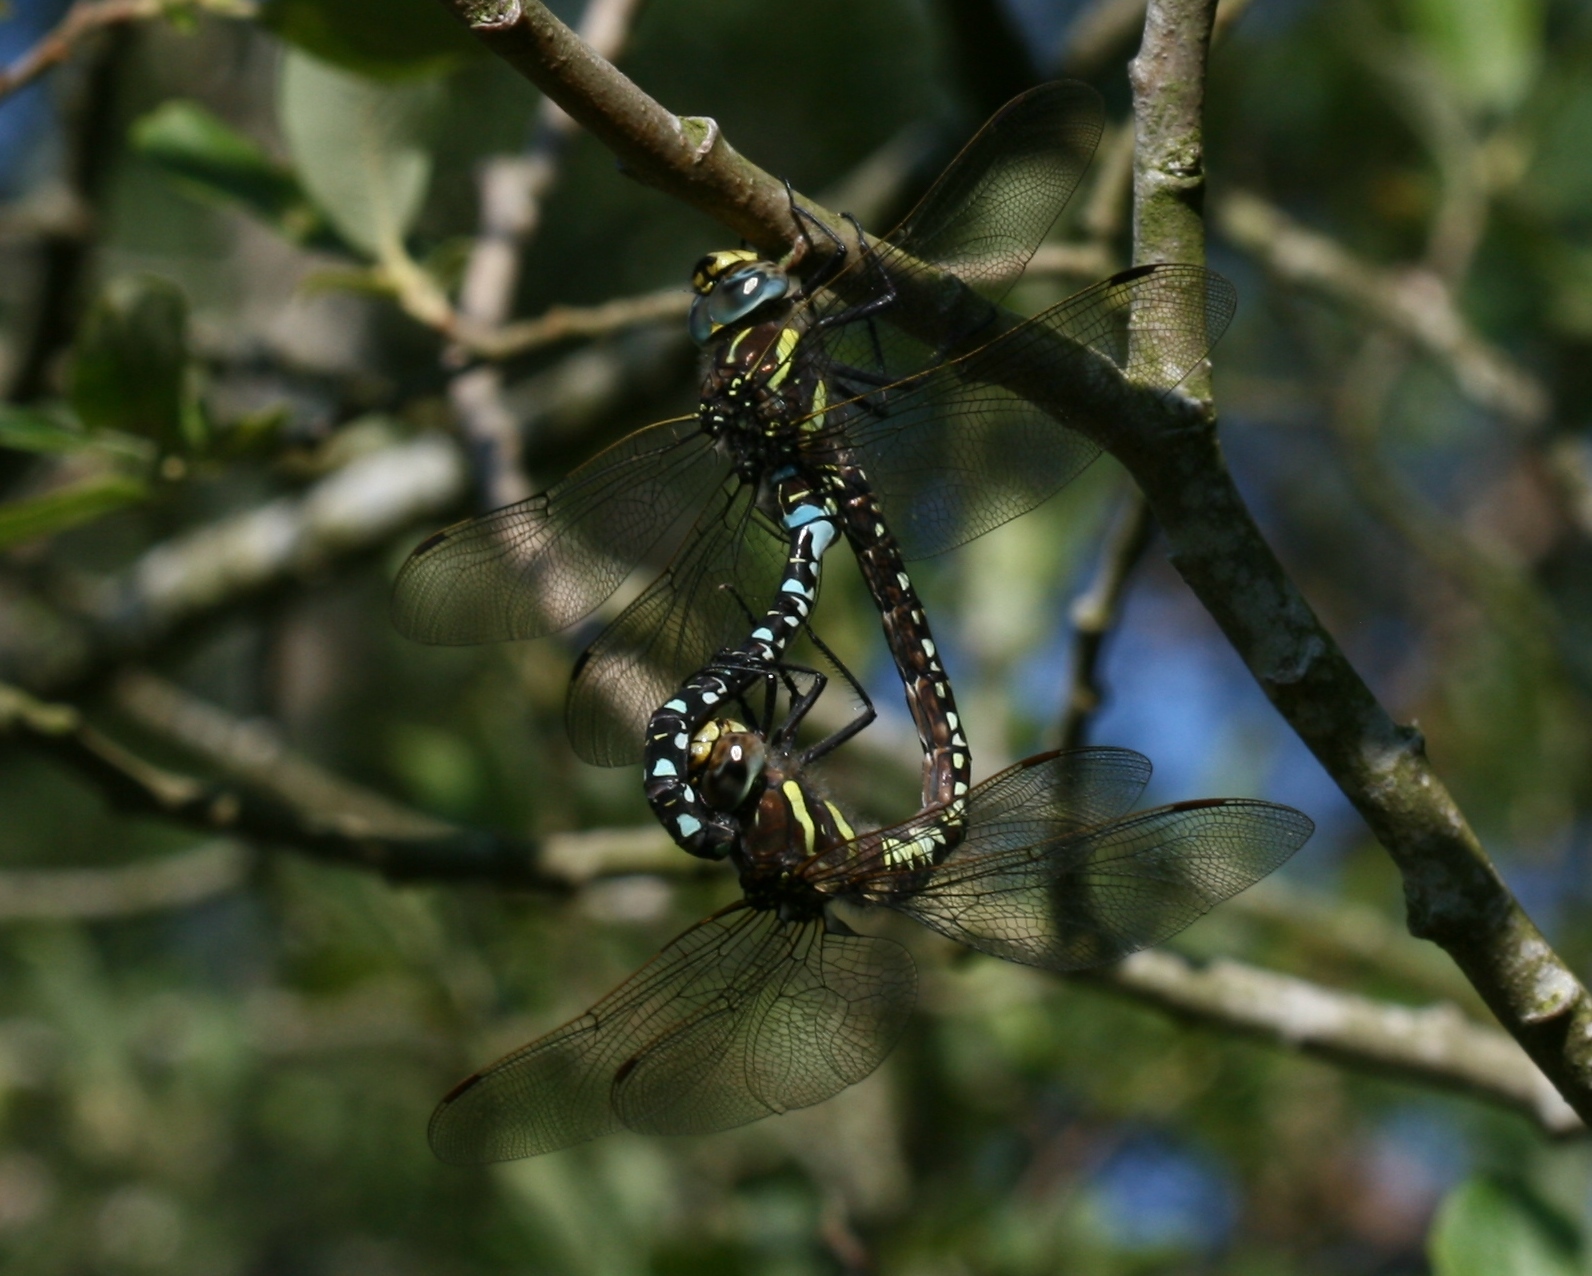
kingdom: Animalia
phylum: Arthropoda
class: Insecta
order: Odonata
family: Aeshnidae
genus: Aeshna
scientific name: Aeshna juncea
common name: Moorland hawker
